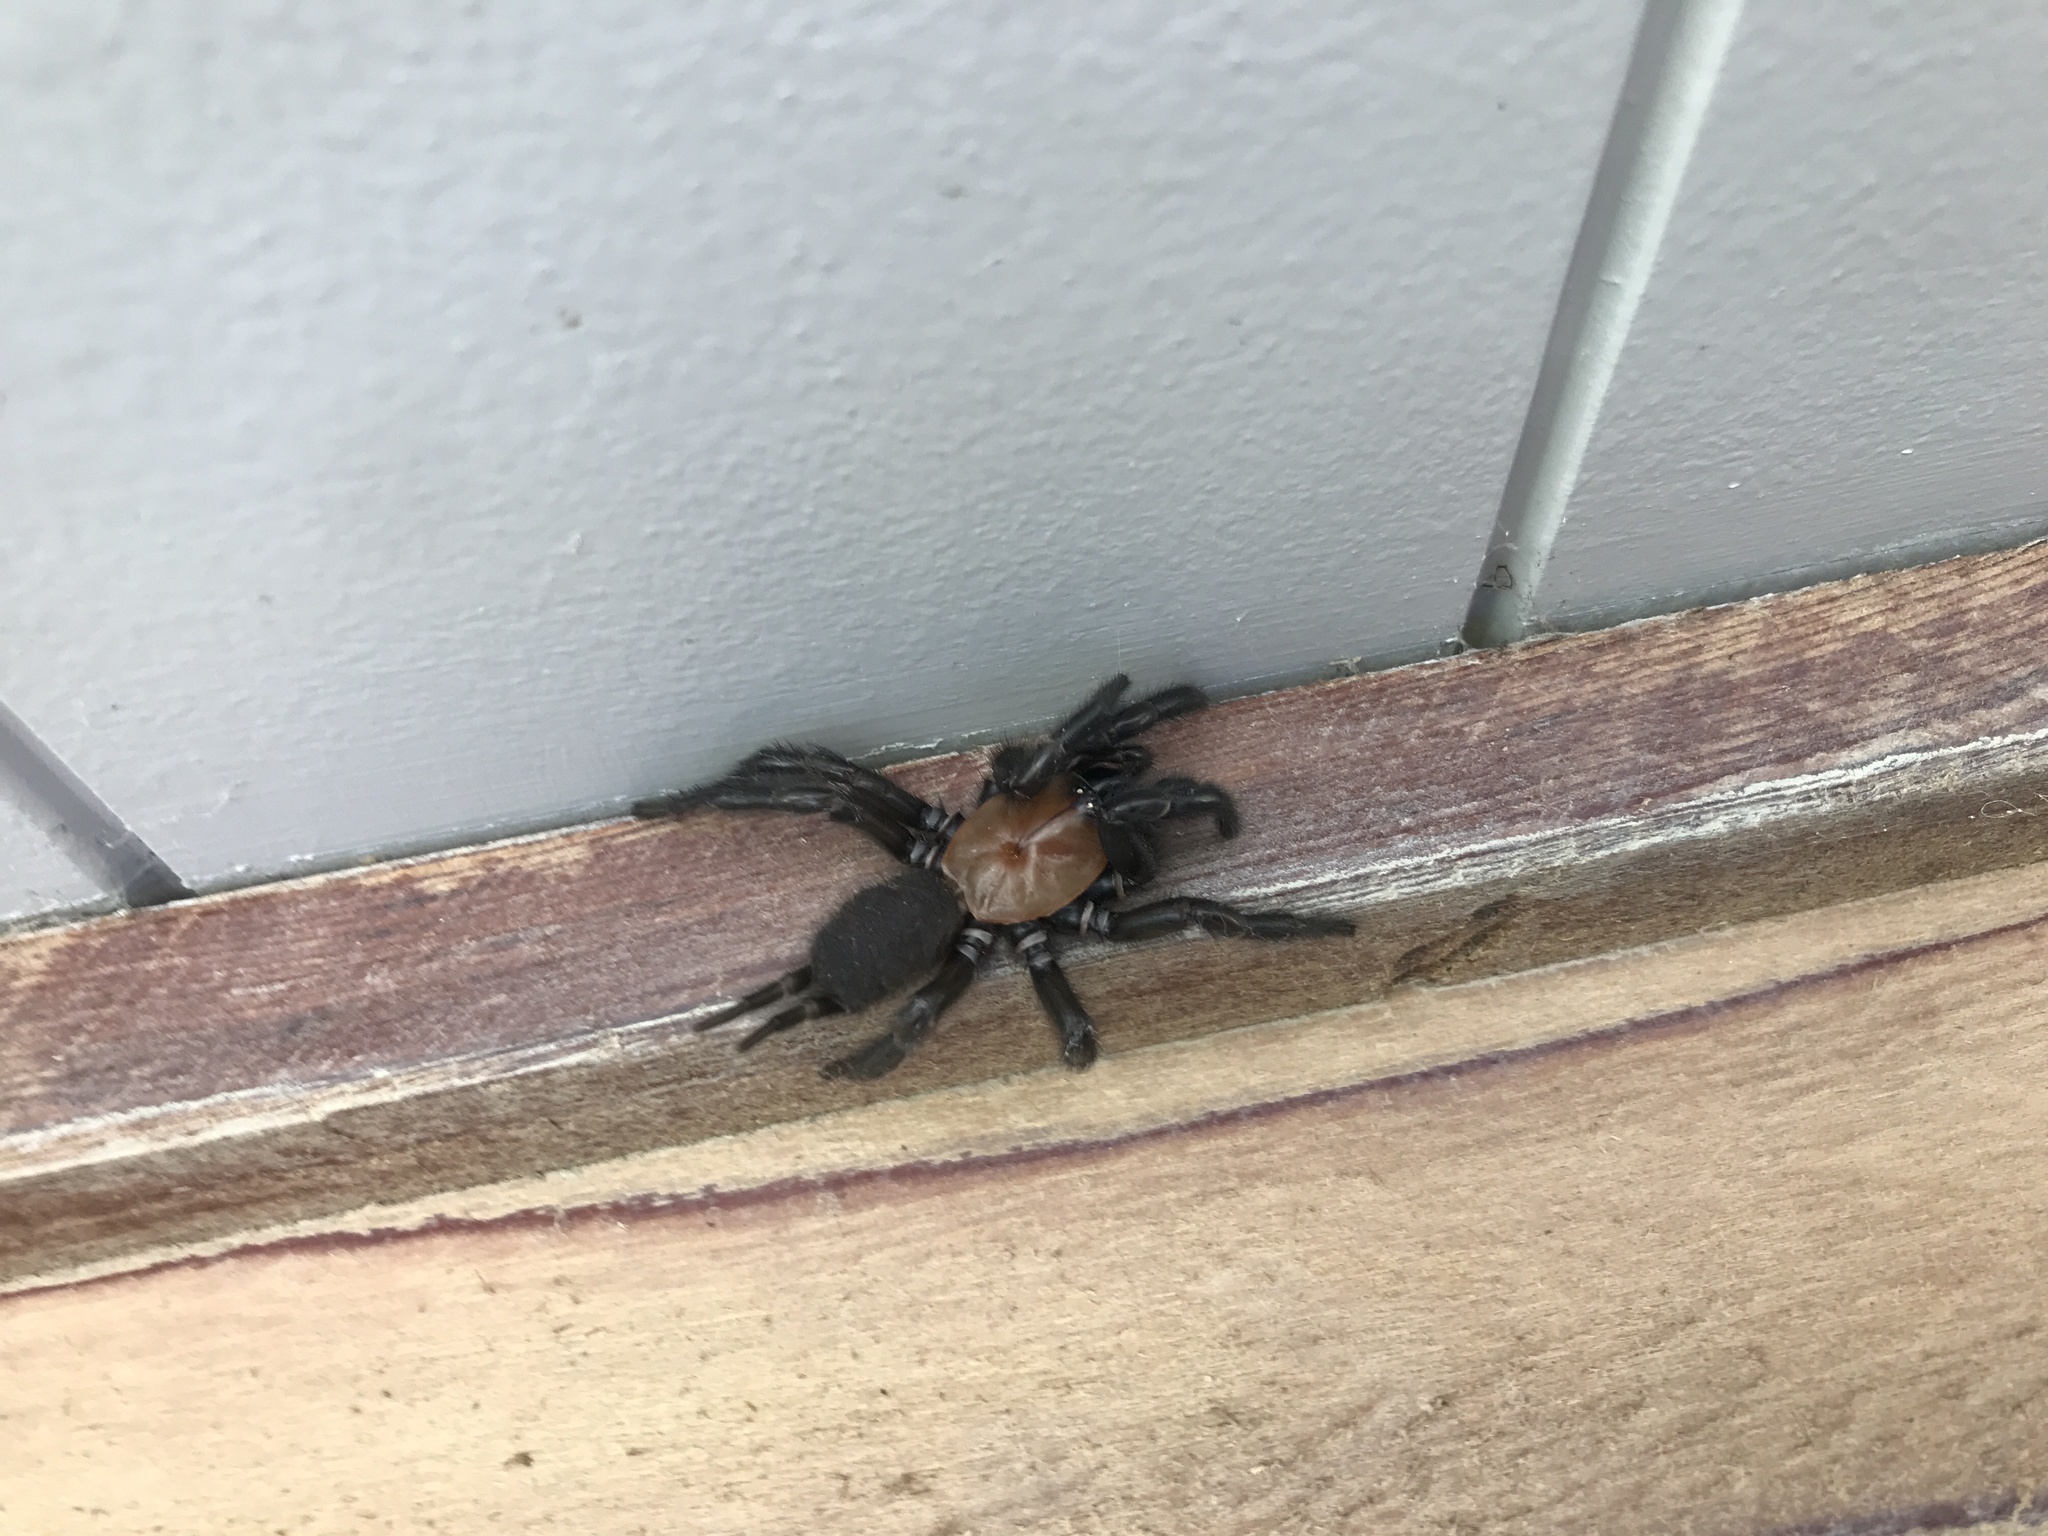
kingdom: Animalia
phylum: Arthropoda
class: Arachnida
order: Araneae
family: Porrhothelidae
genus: Porrhothele
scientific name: Porrhothele antipodiana
